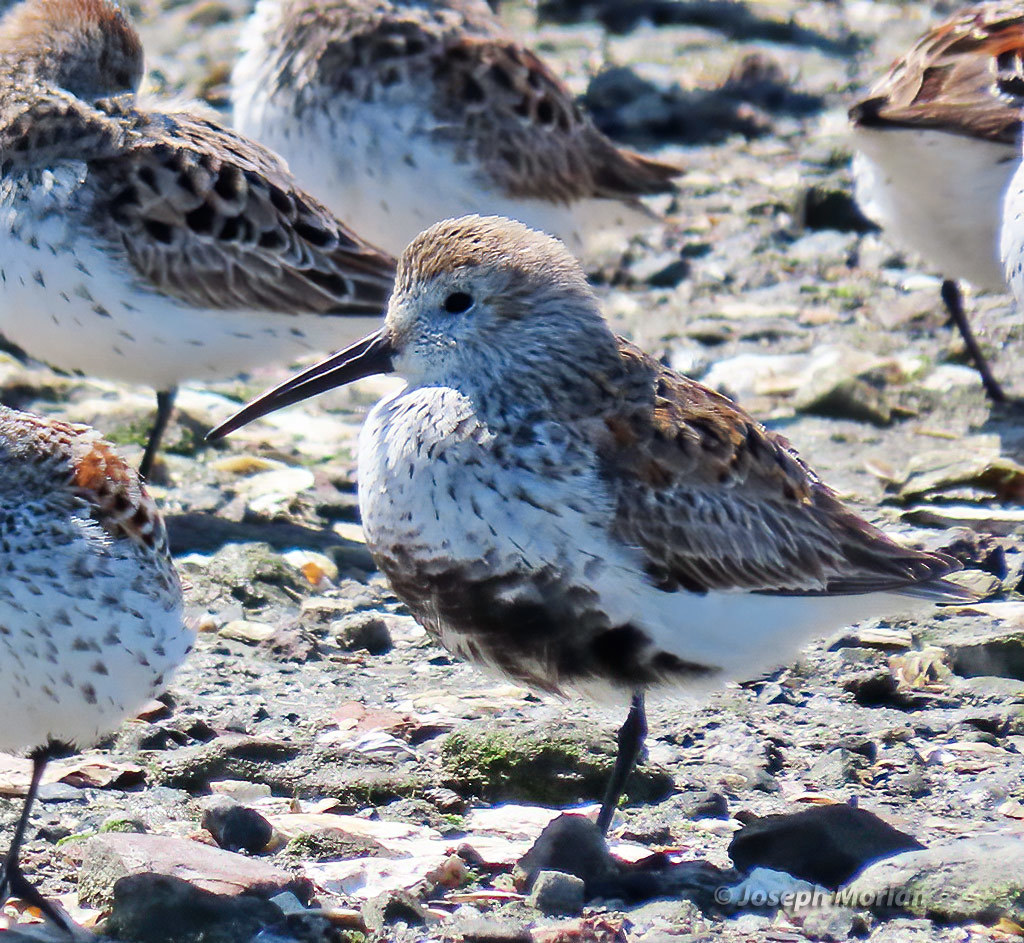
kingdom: Animalia
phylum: Chordata
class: Aves
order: Charadriiformes
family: Scolopacidae
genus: Calidris
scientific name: Calidris alpina
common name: Dunlin
